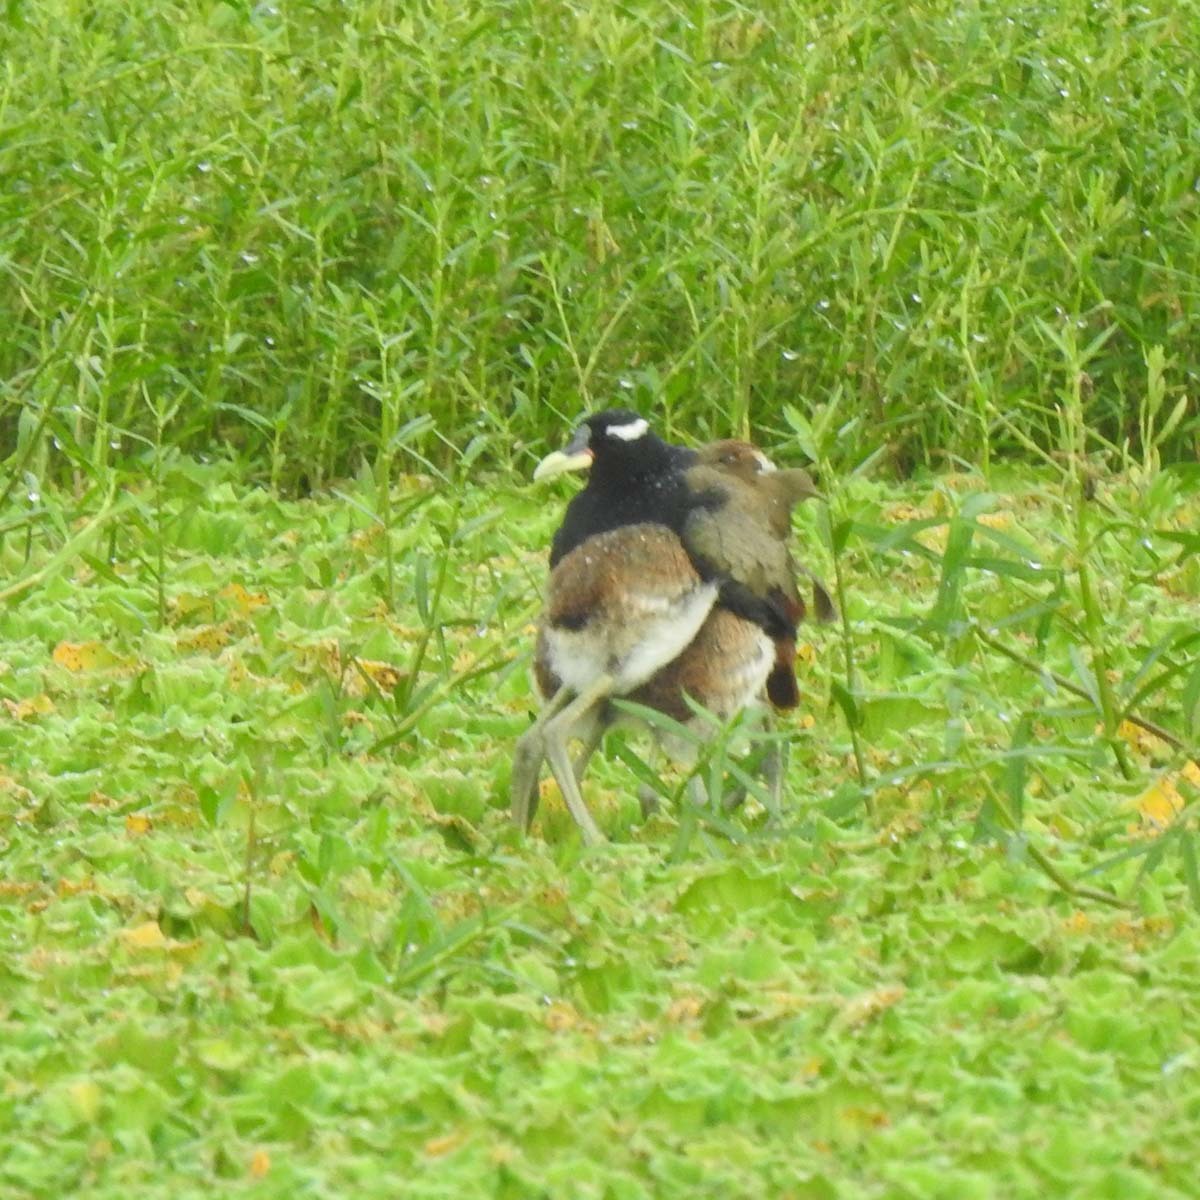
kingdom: Animalia
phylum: Chordata
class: Aves
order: Charadriiformes
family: Jacanidae
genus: Metopidius
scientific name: Metopidius indicus
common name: Bronze-winged jacana
